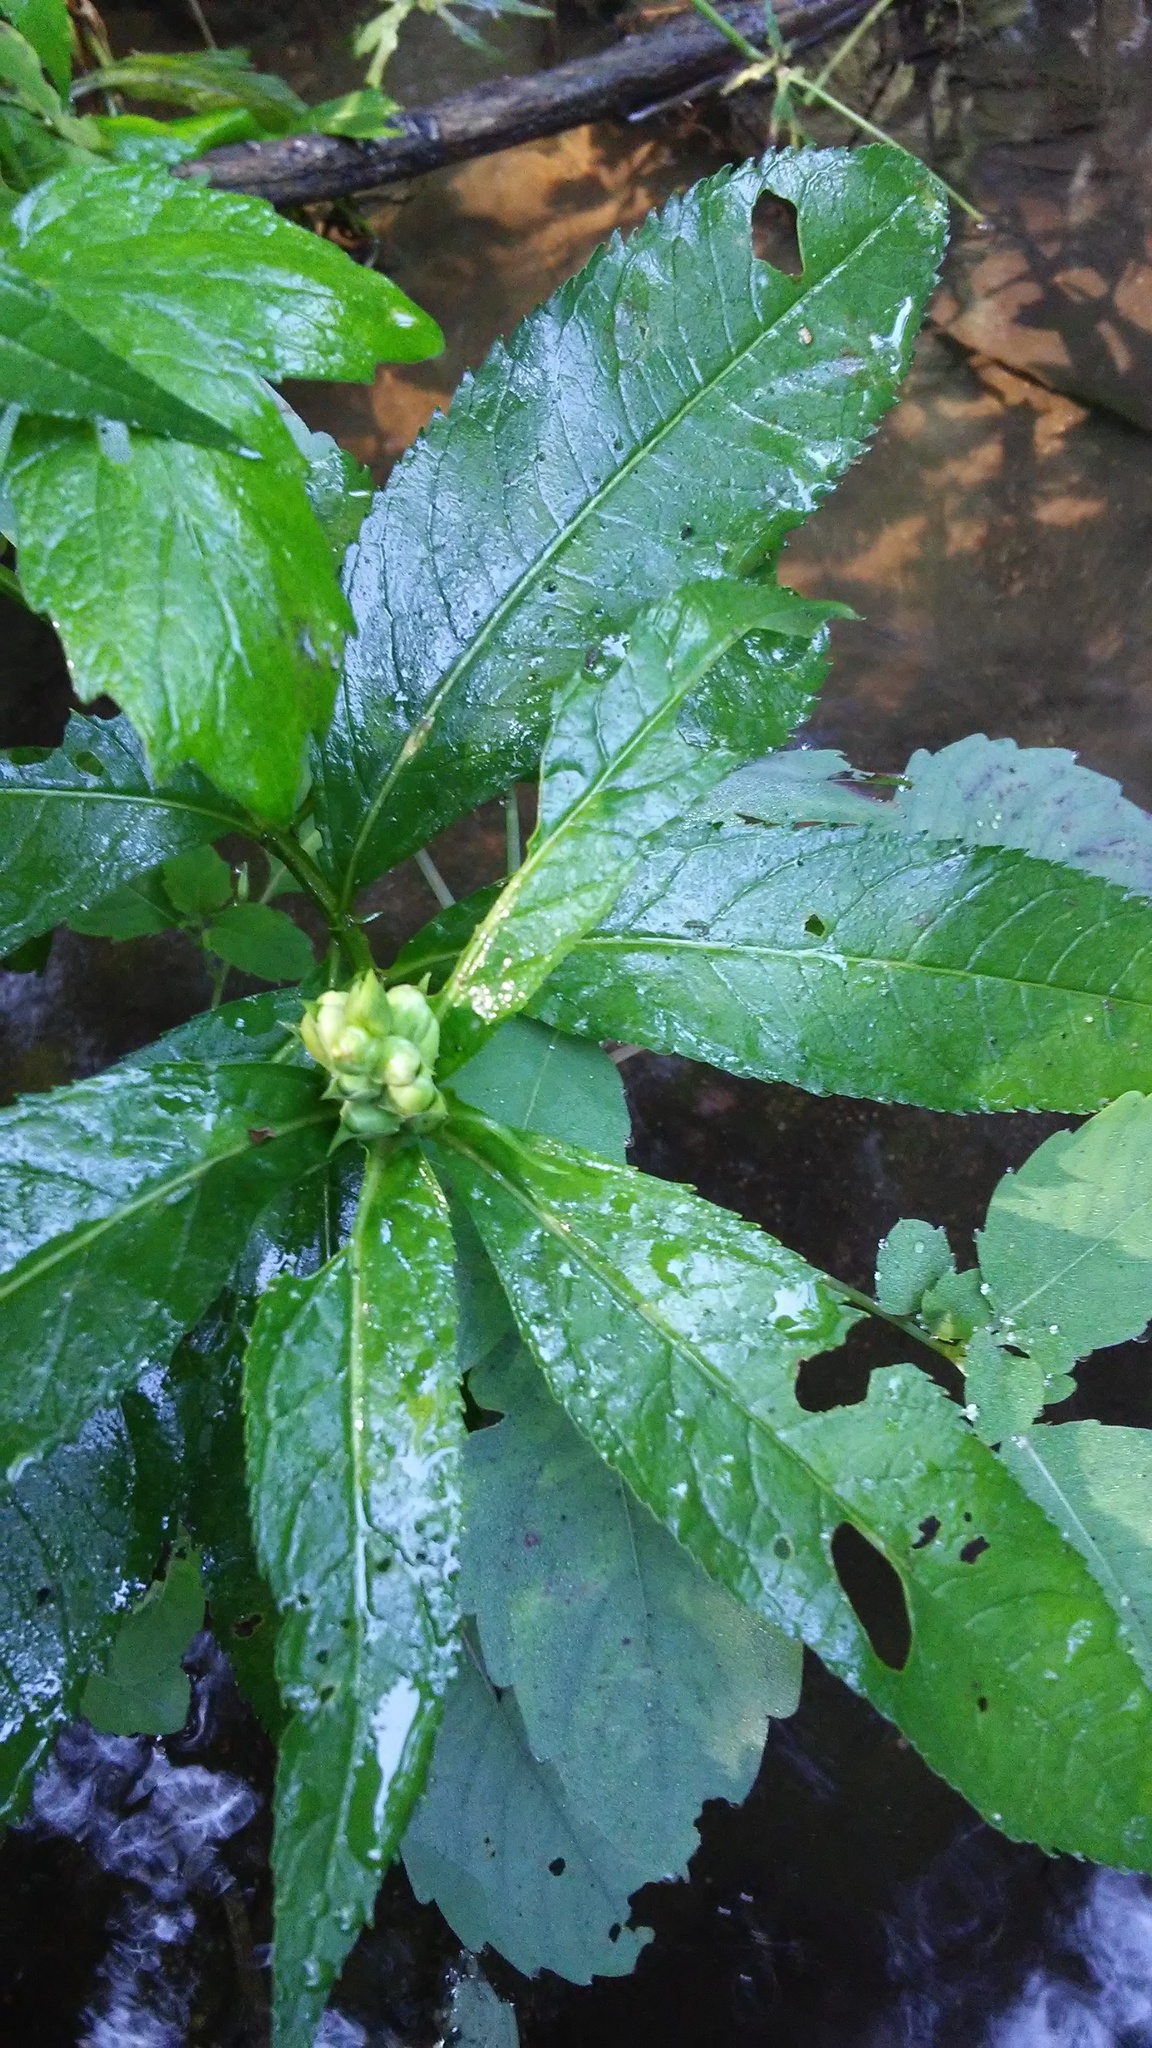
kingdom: Plantae
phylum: Tracheophyta
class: Magnoliopsida
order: Lamiales
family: Plantaginaceae
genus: Chelone
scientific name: Chelone glabra
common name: Snakehead
